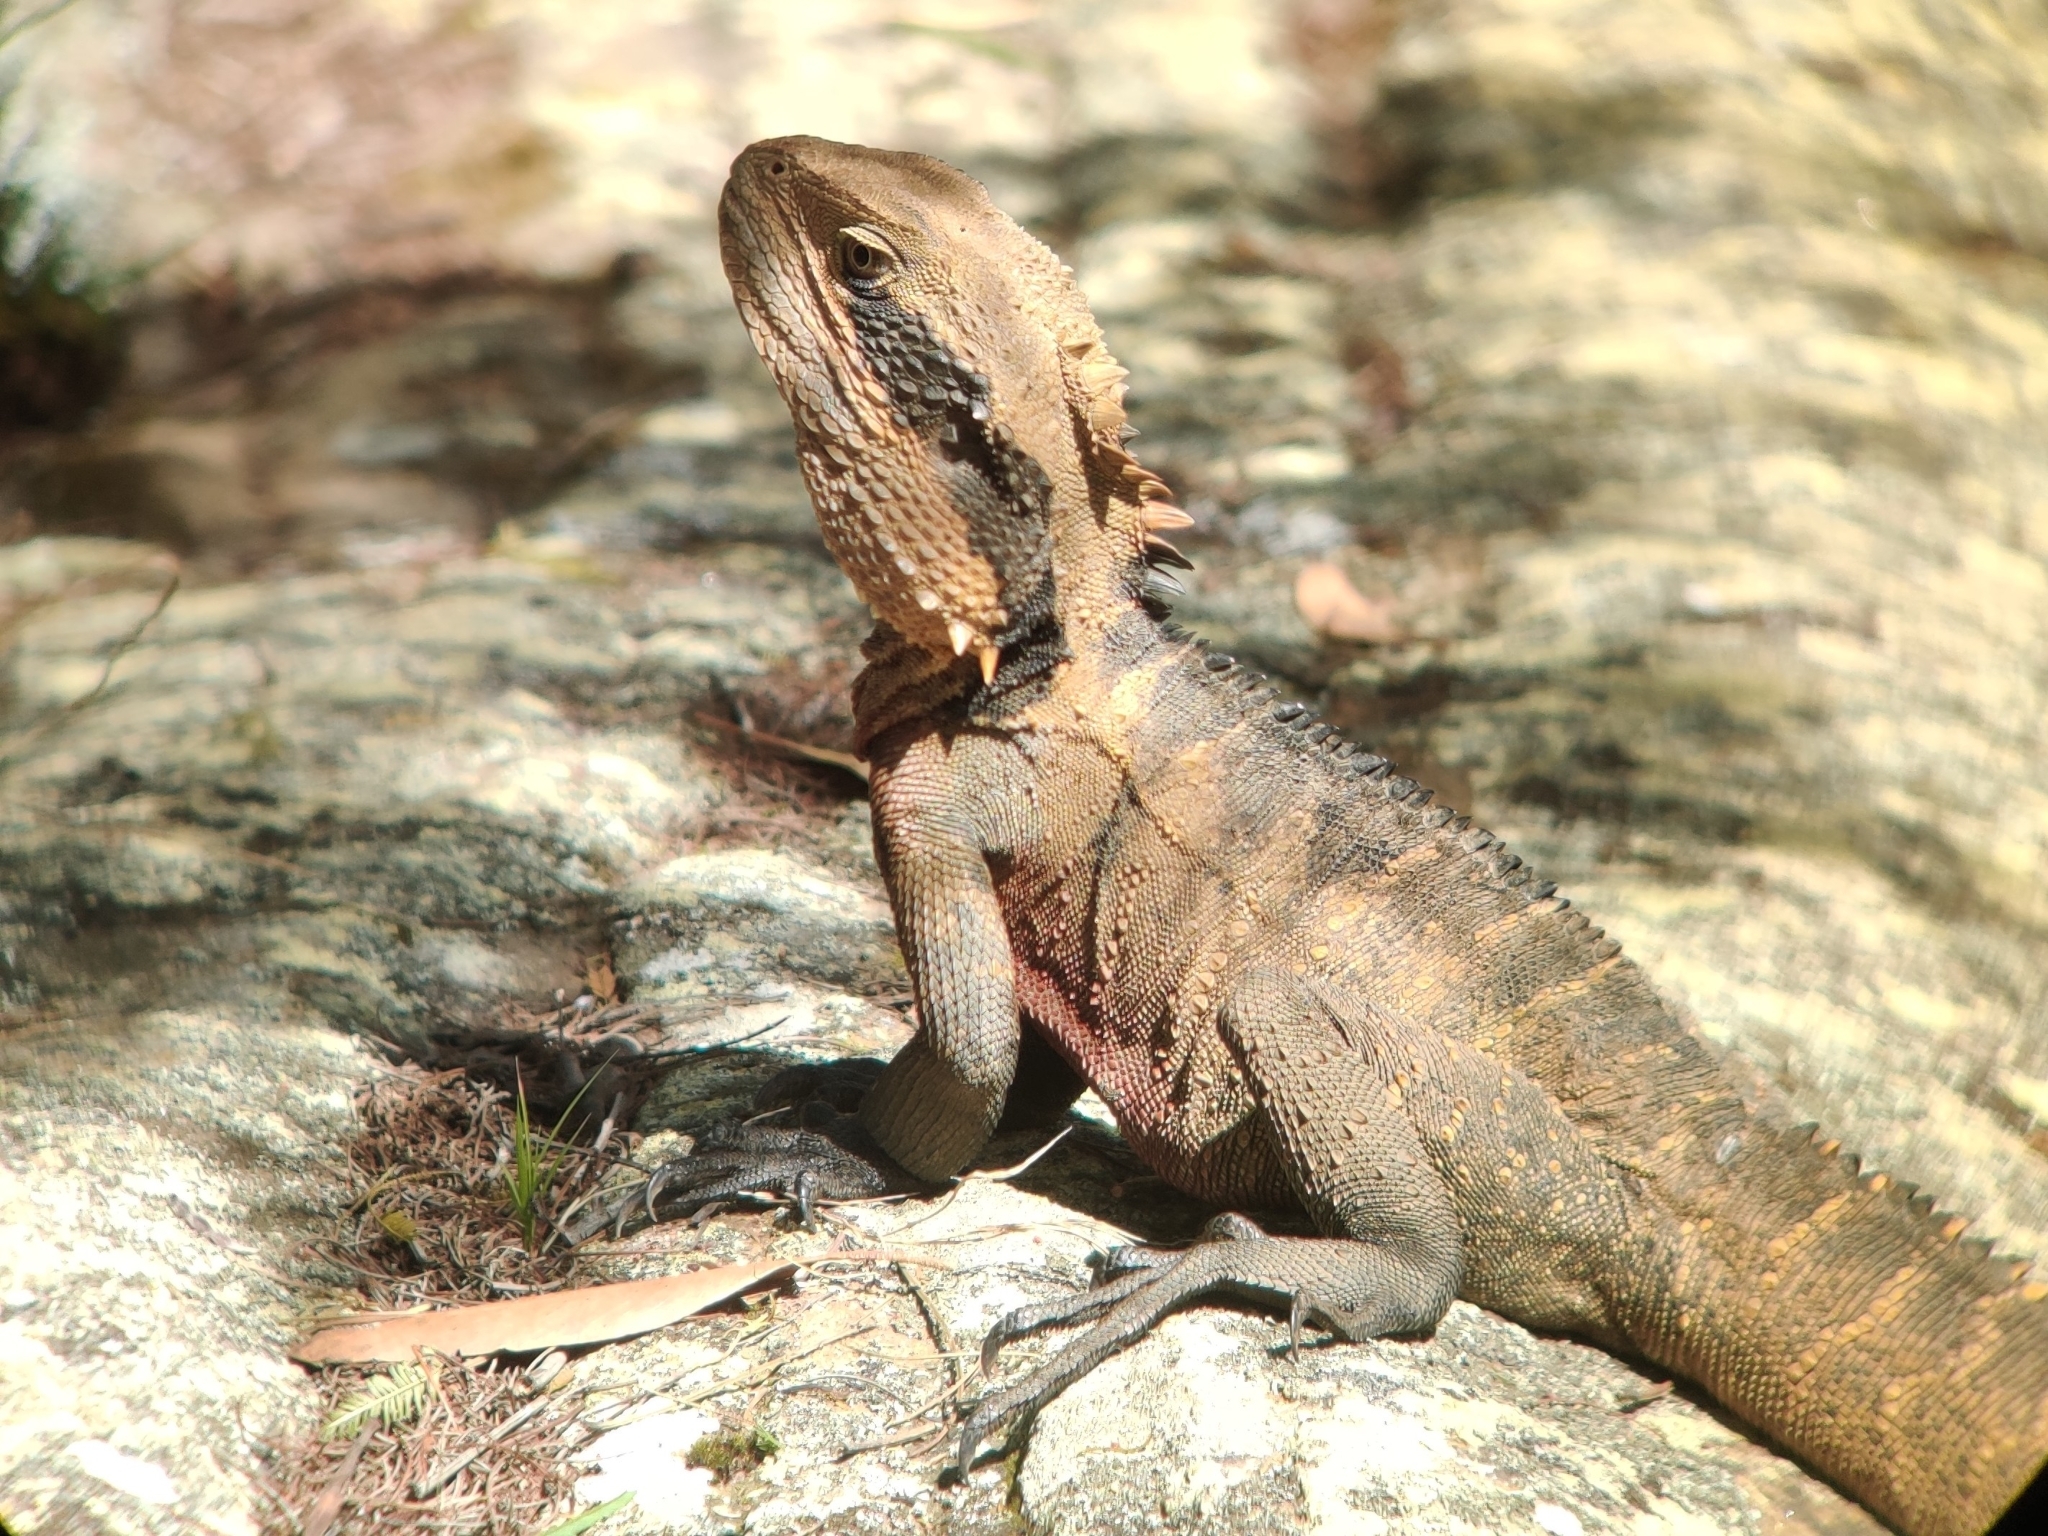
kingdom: Animalia
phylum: Chordata
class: Squamata
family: Agamidae
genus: Intellagama
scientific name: Intellagama lesueurii
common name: Eastern water dragon
